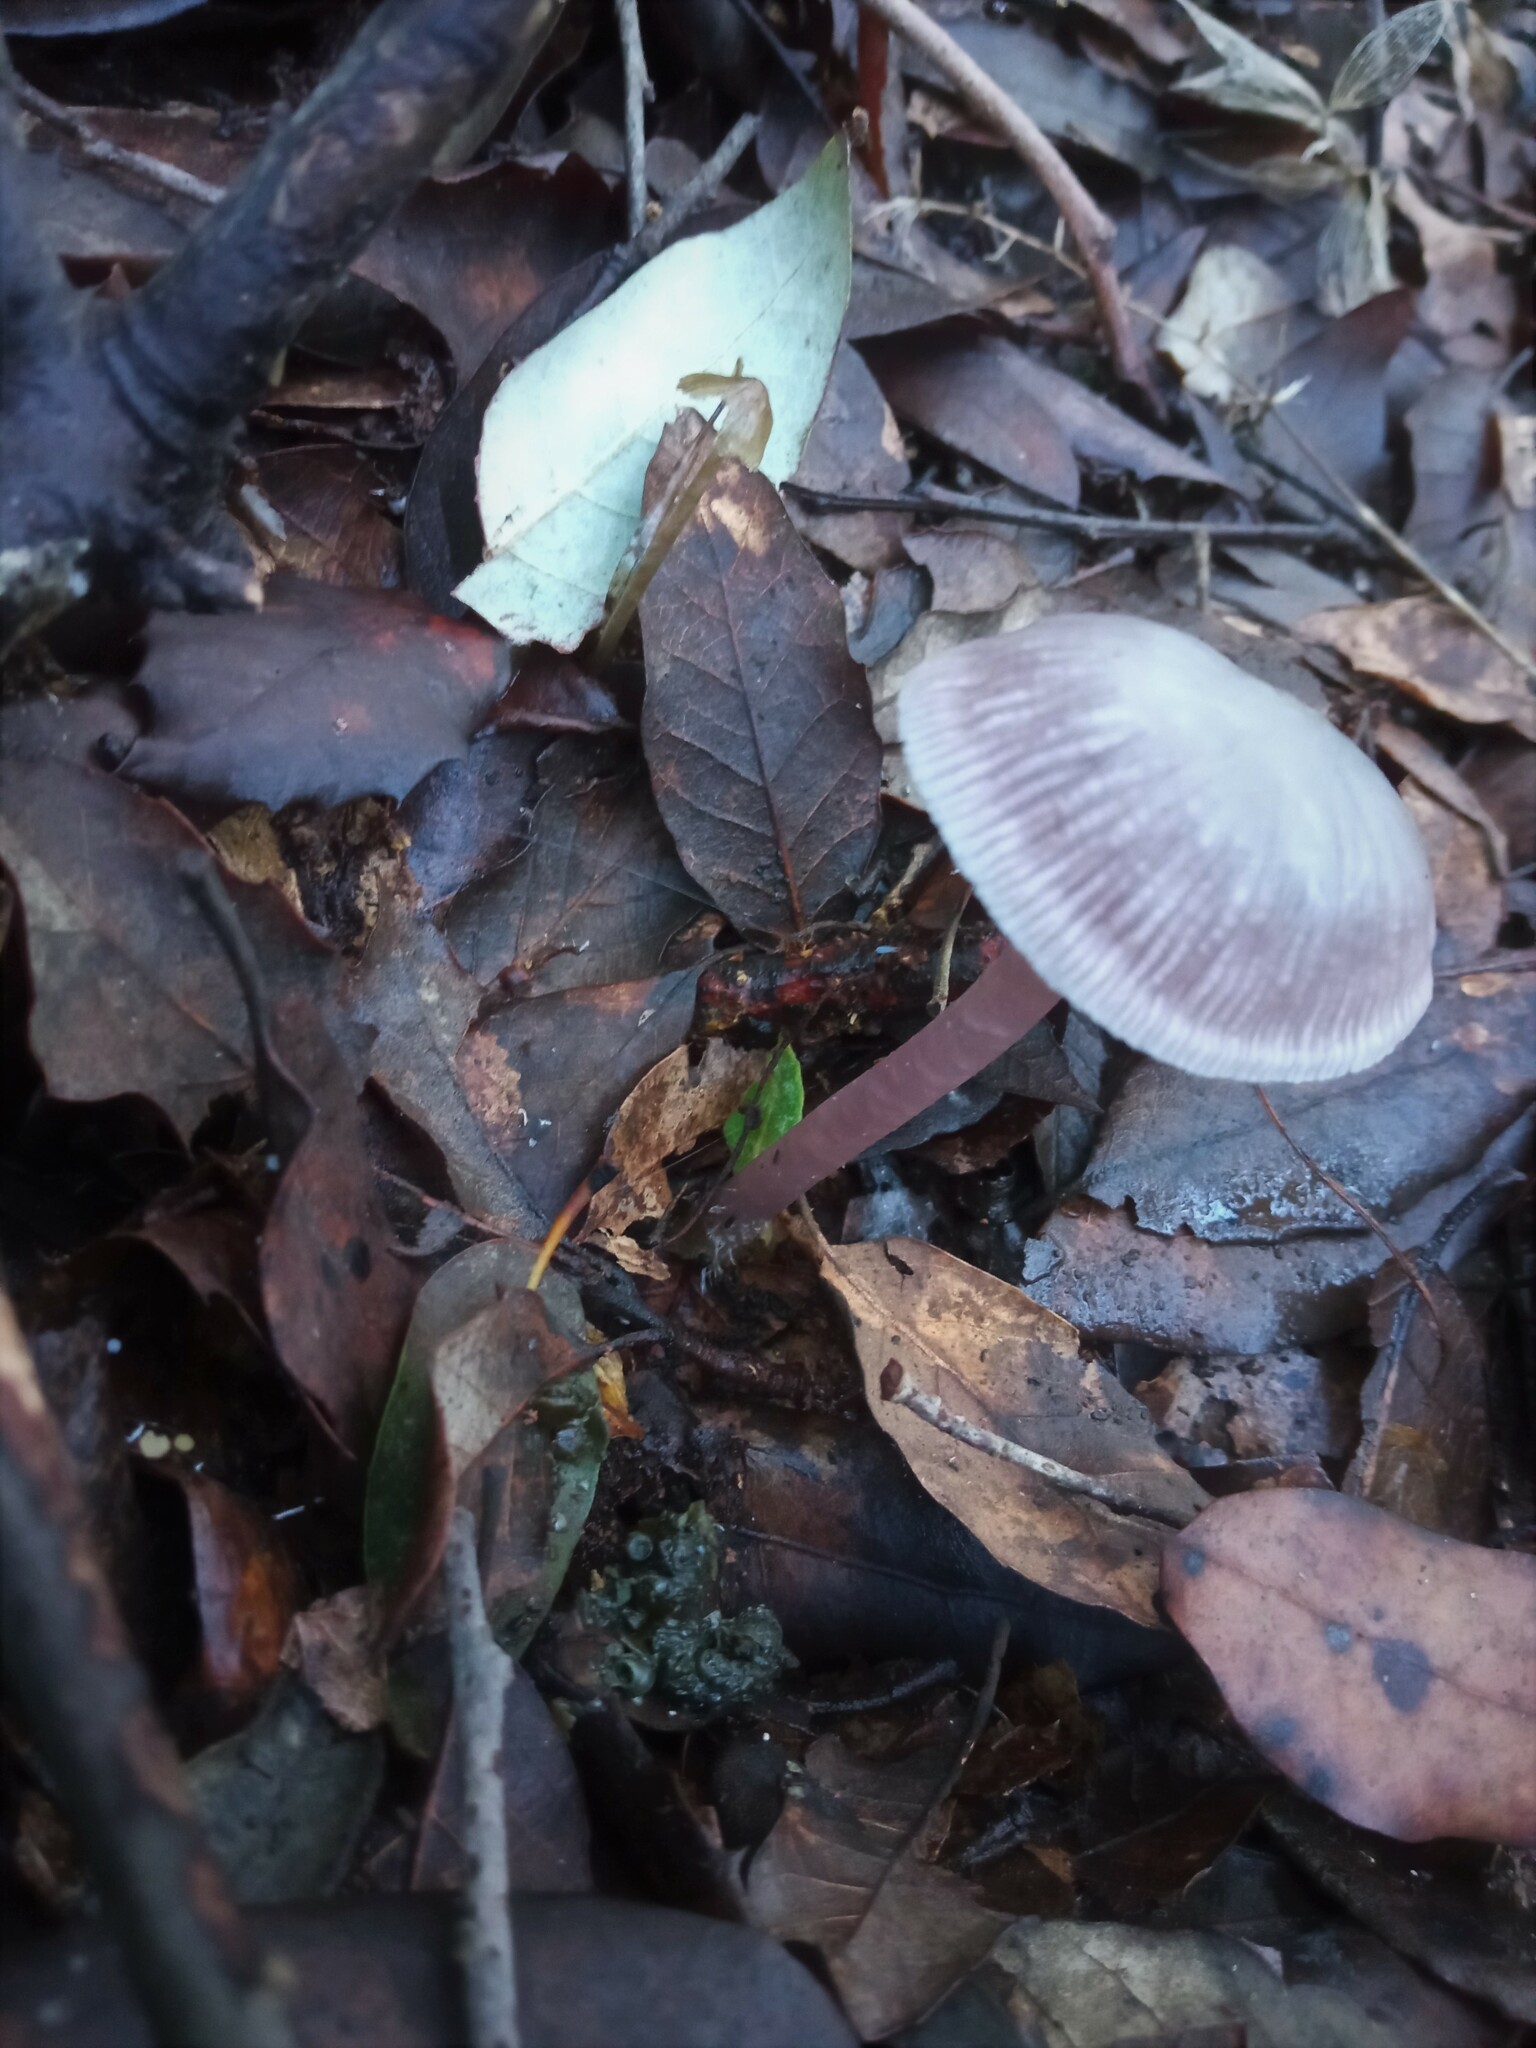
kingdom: Fungi
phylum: Basidiomycota
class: Agaricomycetes
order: Agaricales
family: Mycenaceae
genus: Mycena
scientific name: Mycena pura
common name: Lilac bonnet
